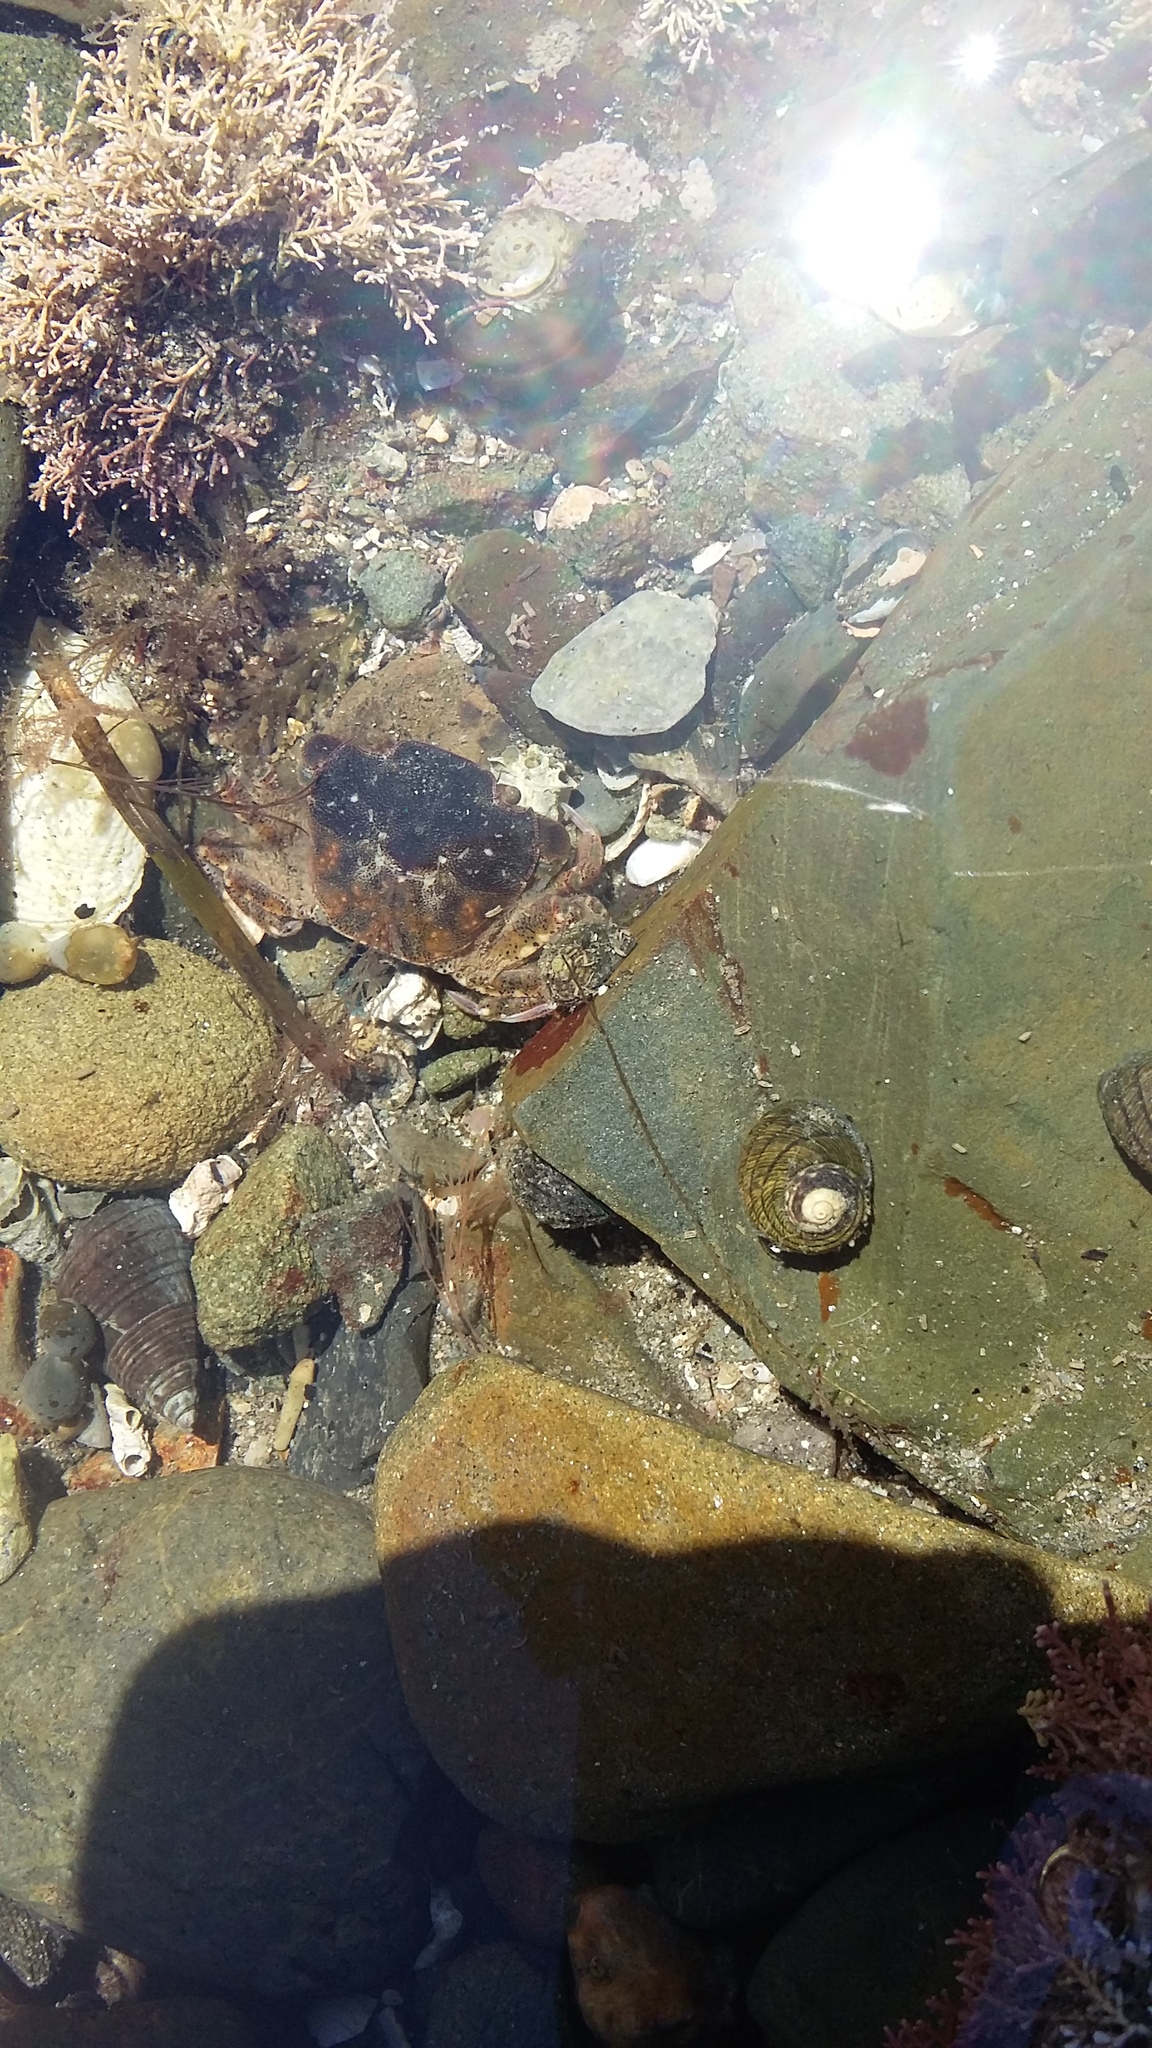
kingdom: Animalia
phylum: Arthropoda
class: Malacostraca
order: Decapoda
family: Varunidae
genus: Hemigrapsus
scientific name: Hemigrapsus crenulatus
